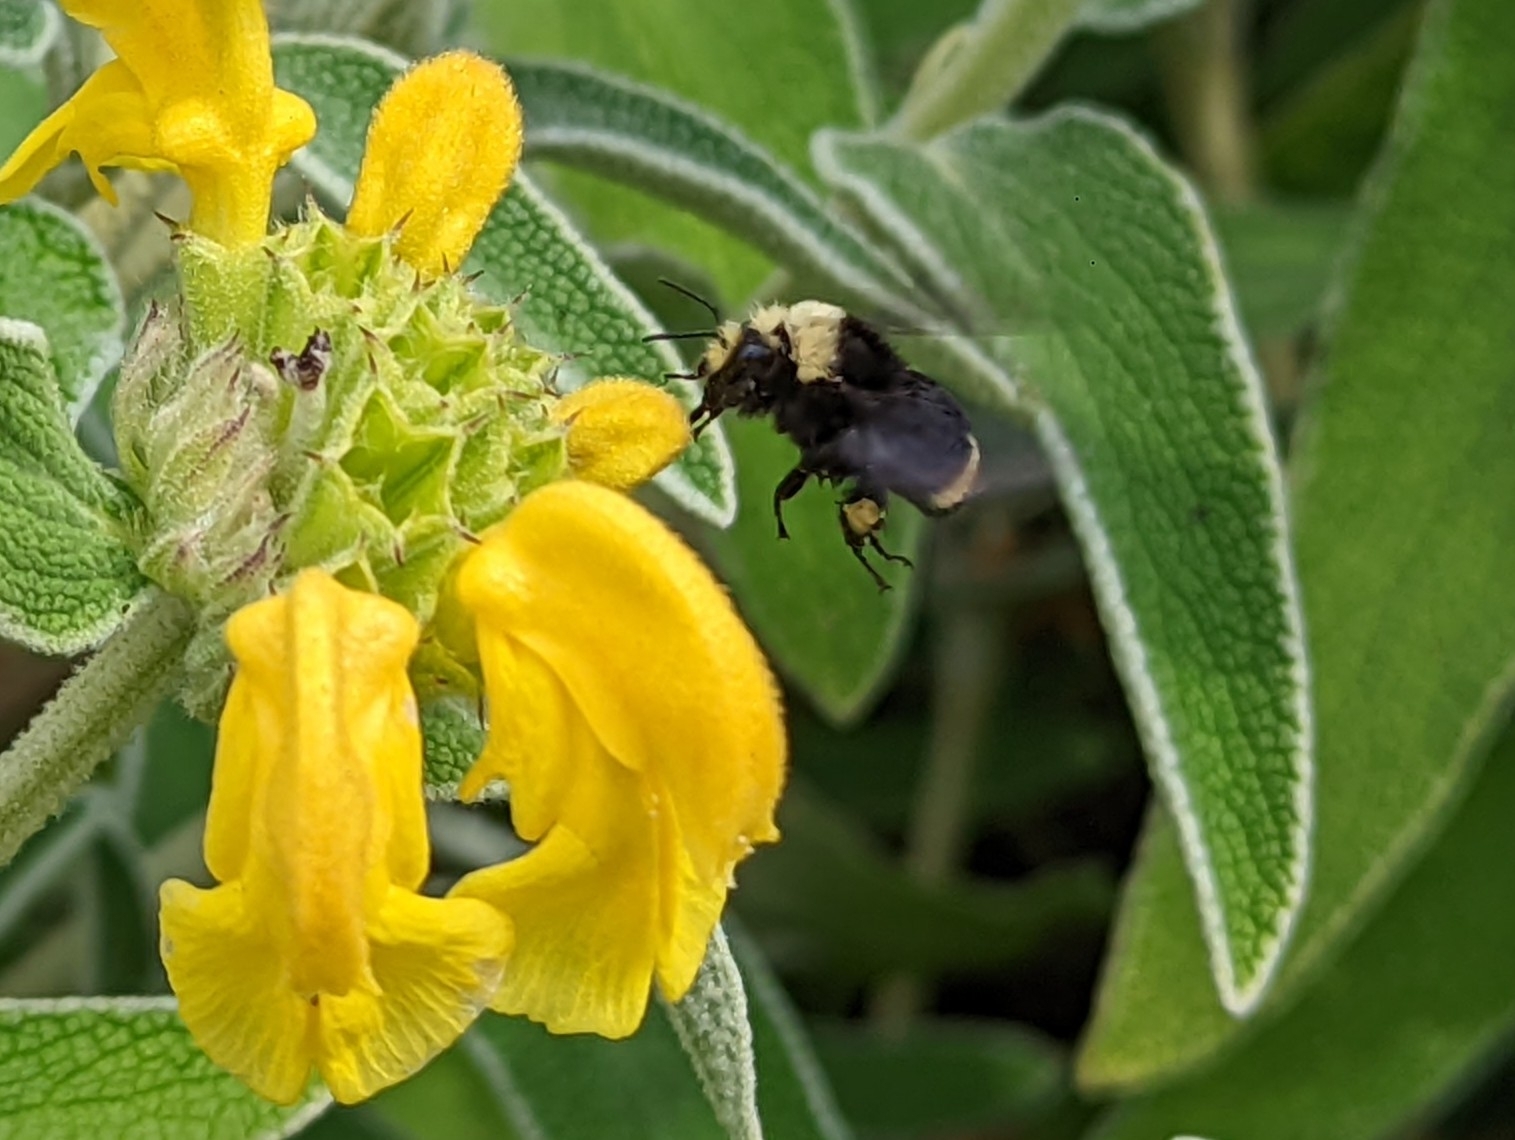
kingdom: Animalia
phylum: Arthropoda
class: Insecta
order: Hymenoptera
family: Apidae
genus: Bombus
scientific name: Bombus vosnesenskii
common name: Vosnesensky bumble bee
